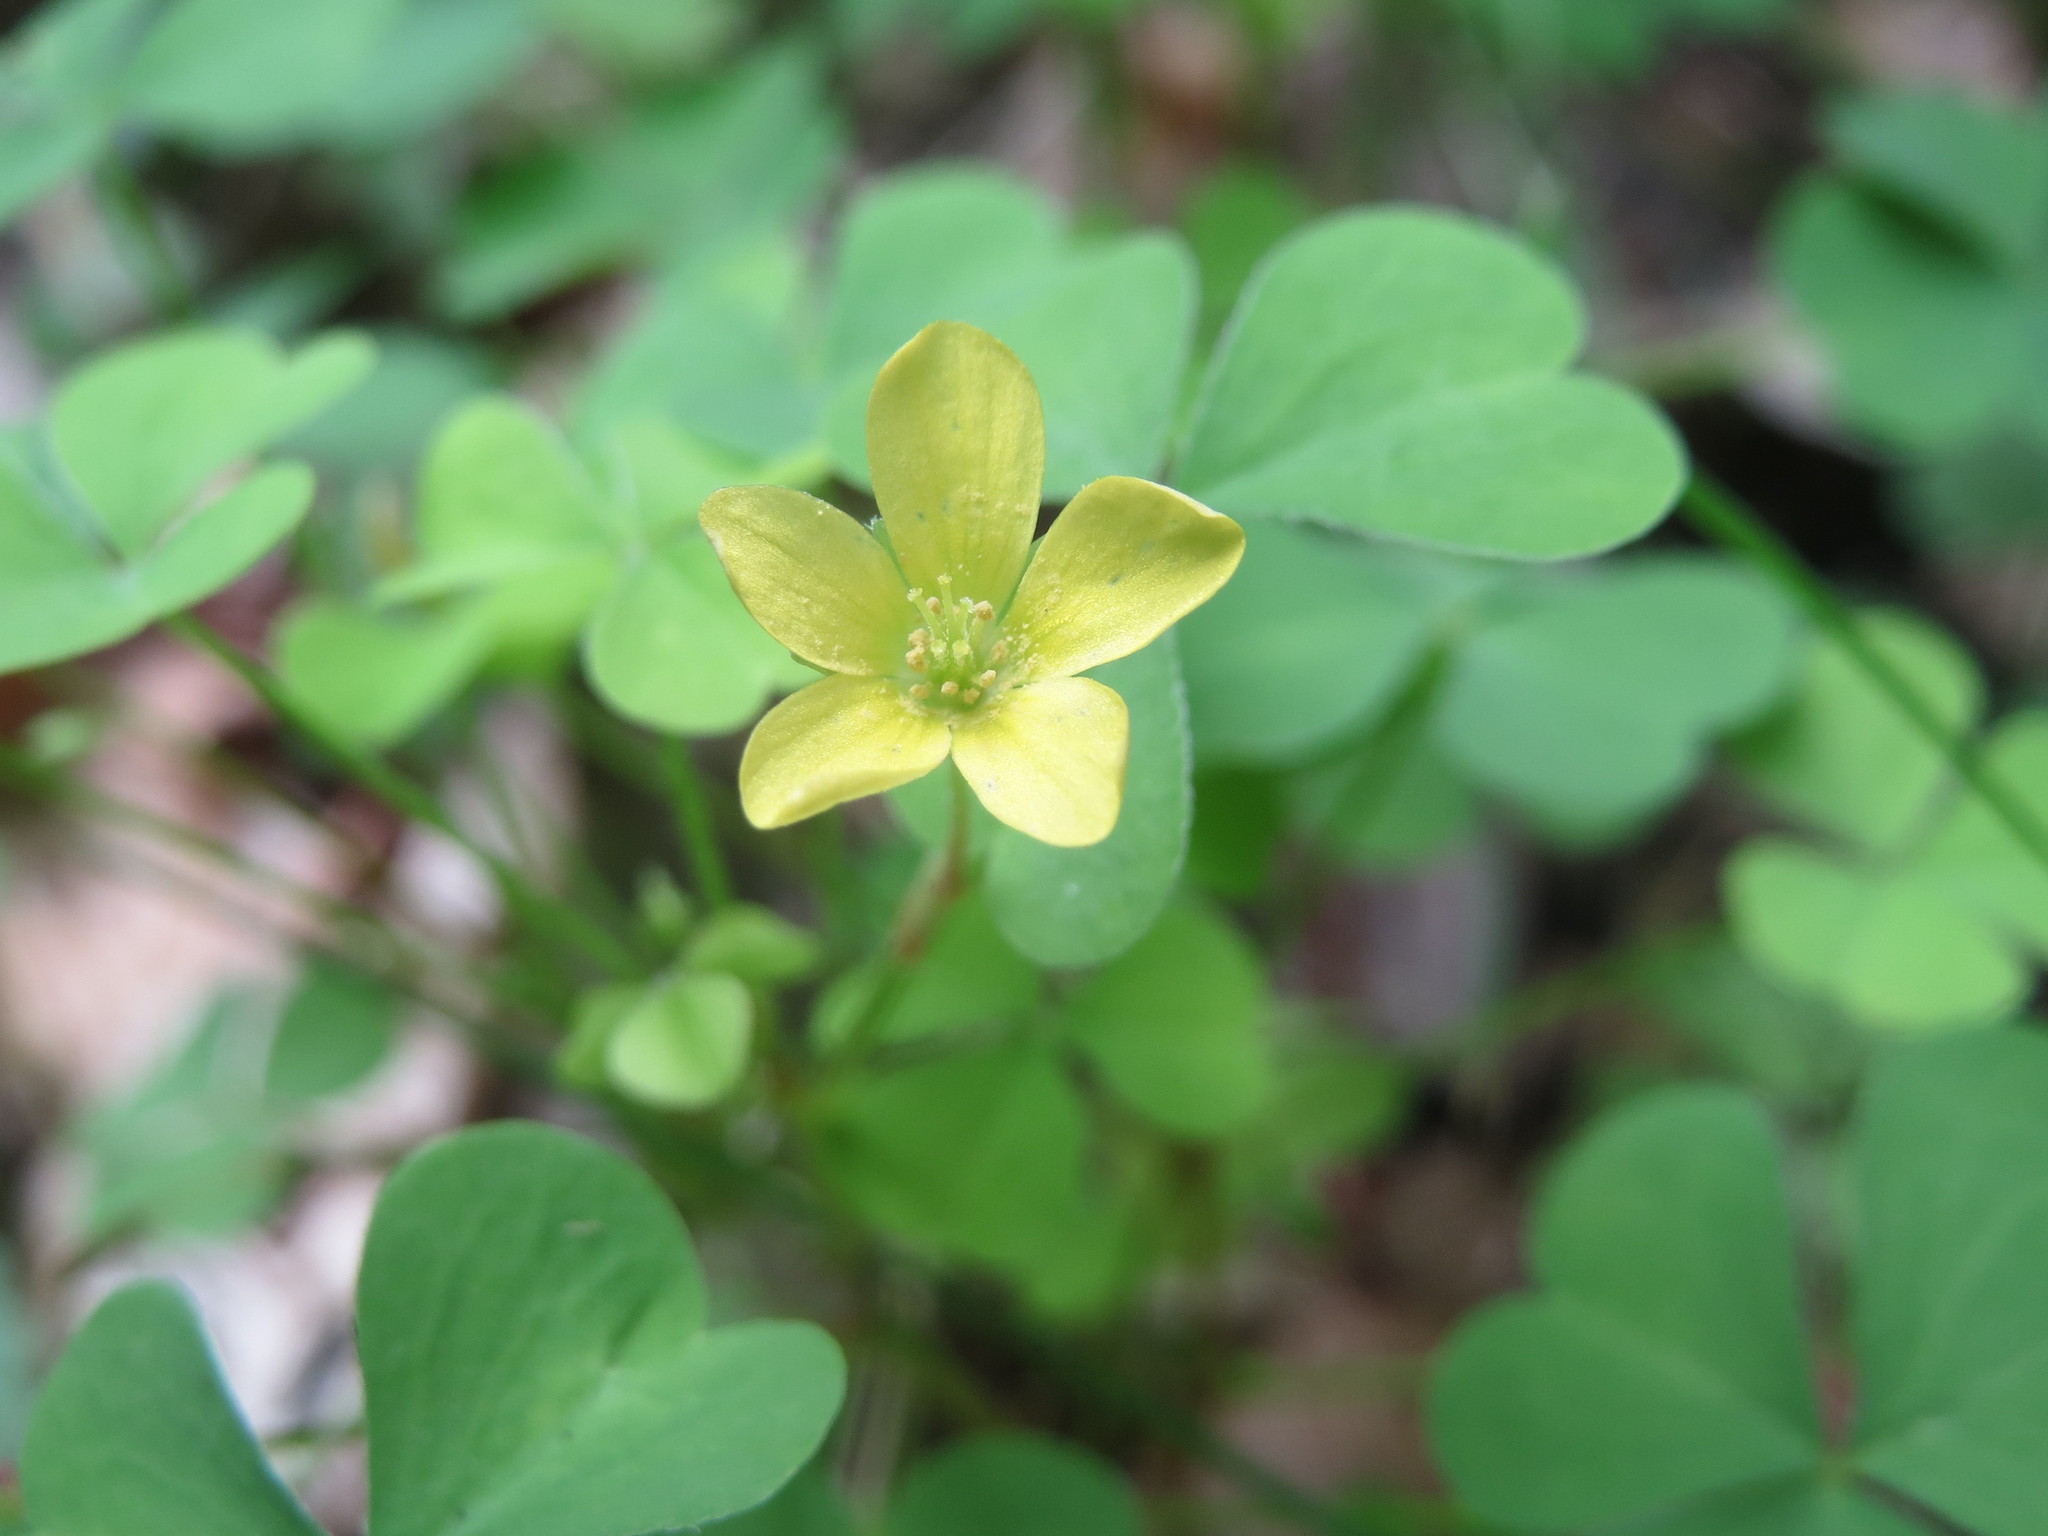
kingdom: Plantae
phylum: Tracheophyta
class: Magnoliopsida
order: Oxalidales
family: Oxalidaceae
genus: Oxalis
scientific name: Oxalis stricta
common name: Upright yellow-sorrel
